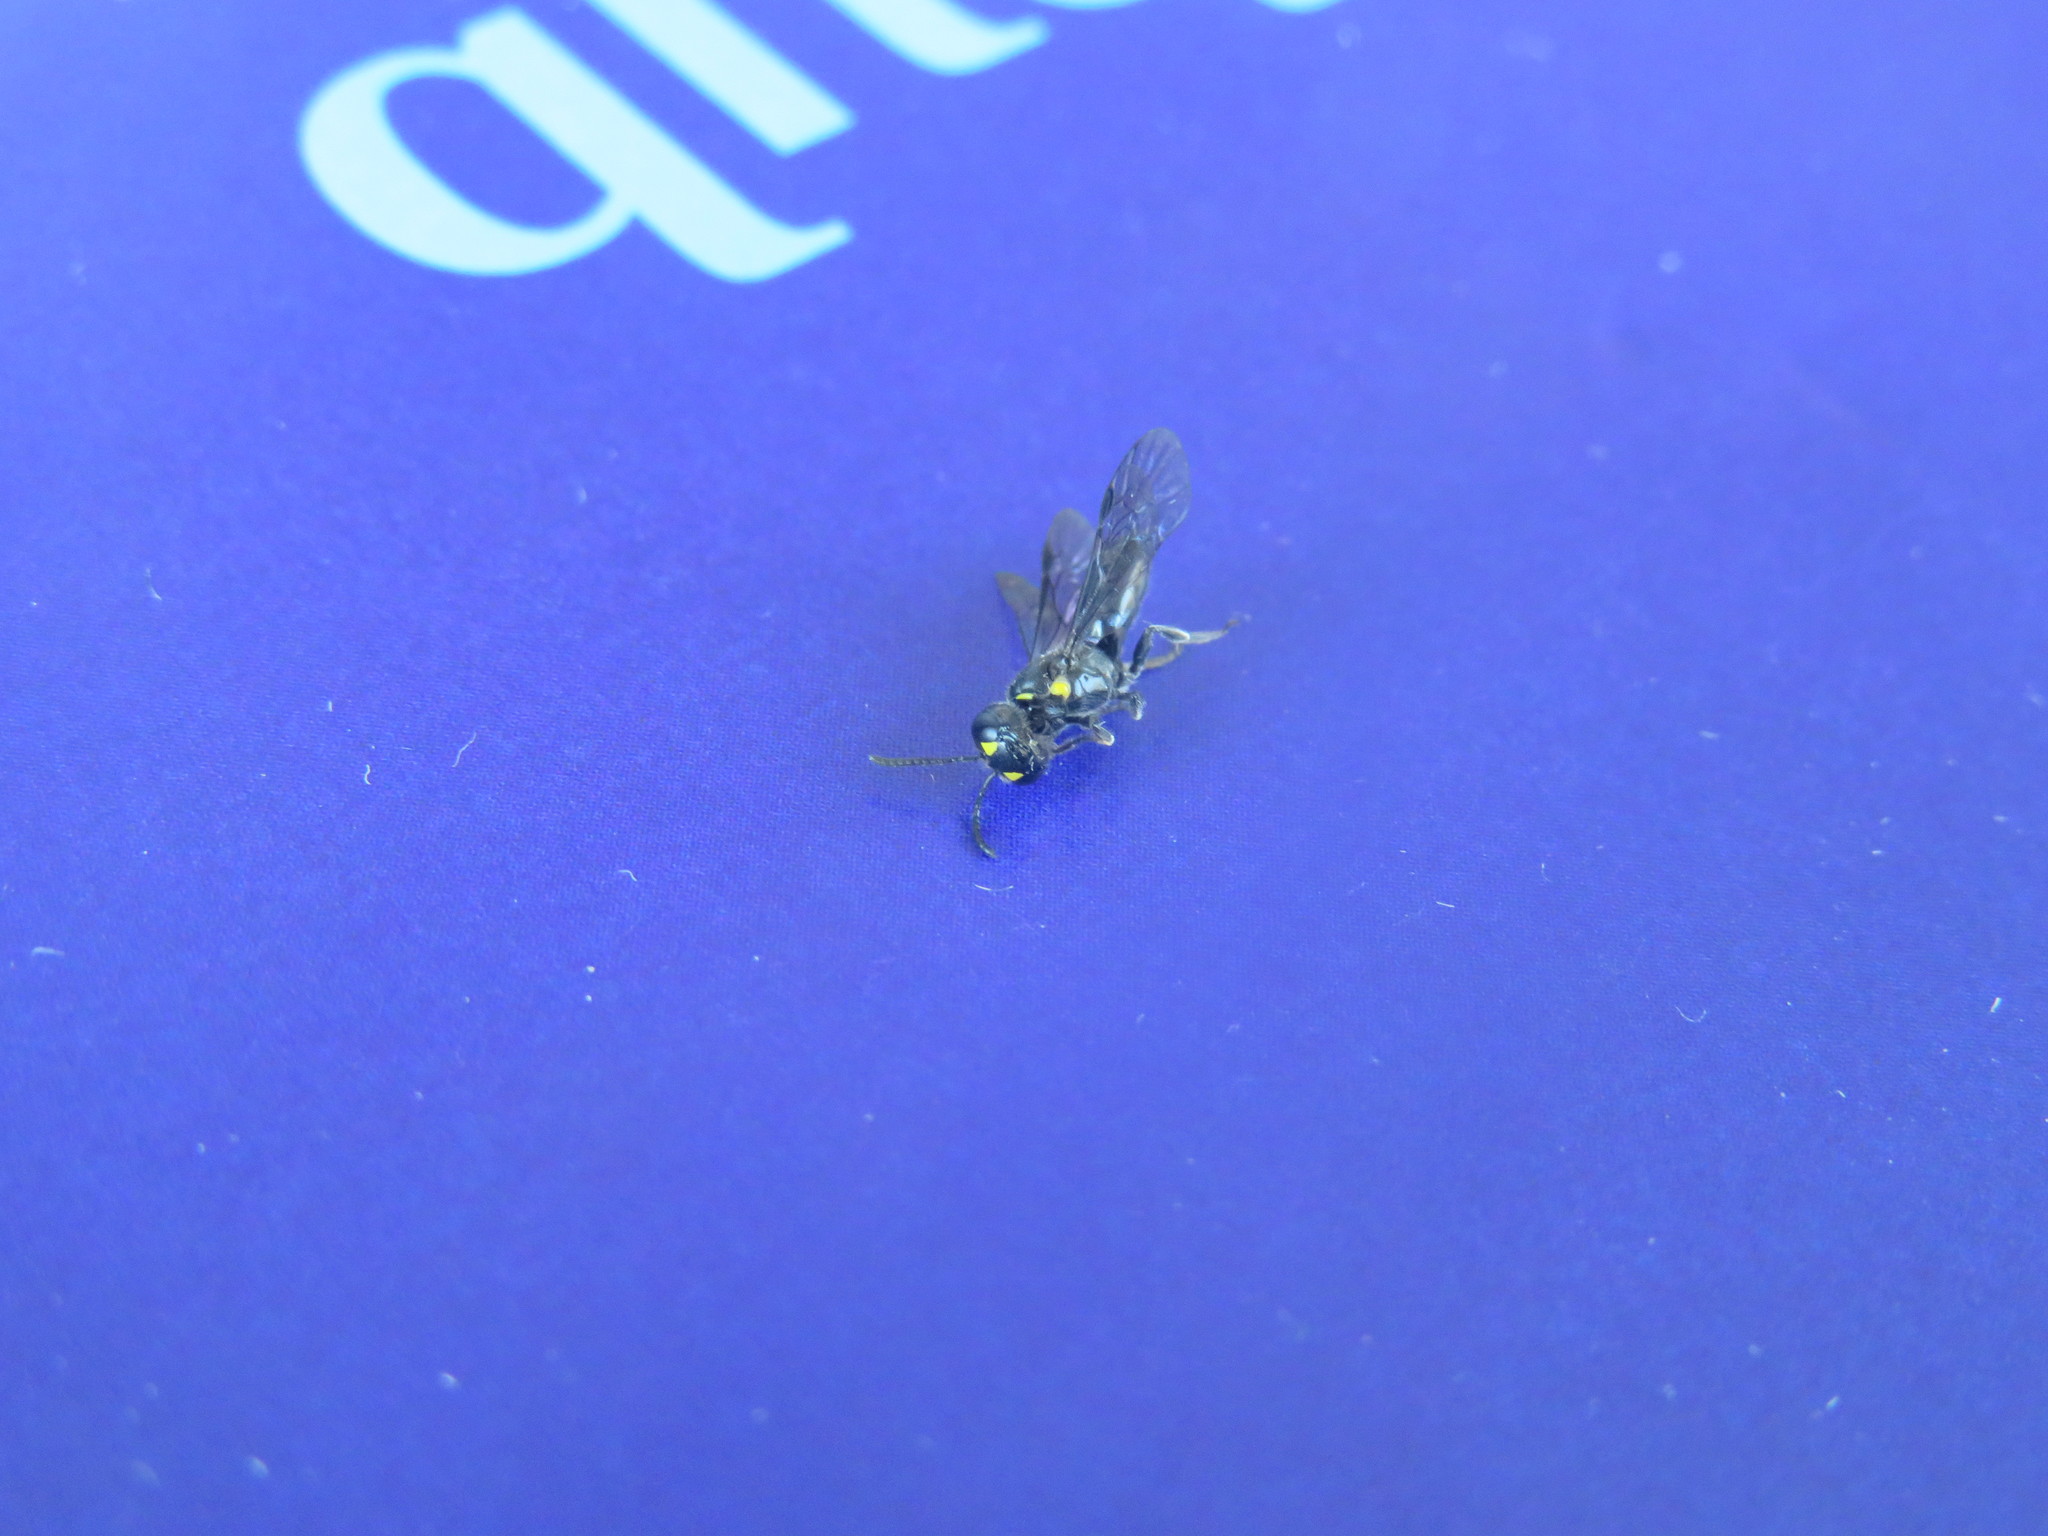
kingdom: Animalia
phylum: Arthropoda
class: Insecta
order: Hymenoptera
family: Colletidae
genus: Hylaeus
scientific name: Hylaeus agilis
